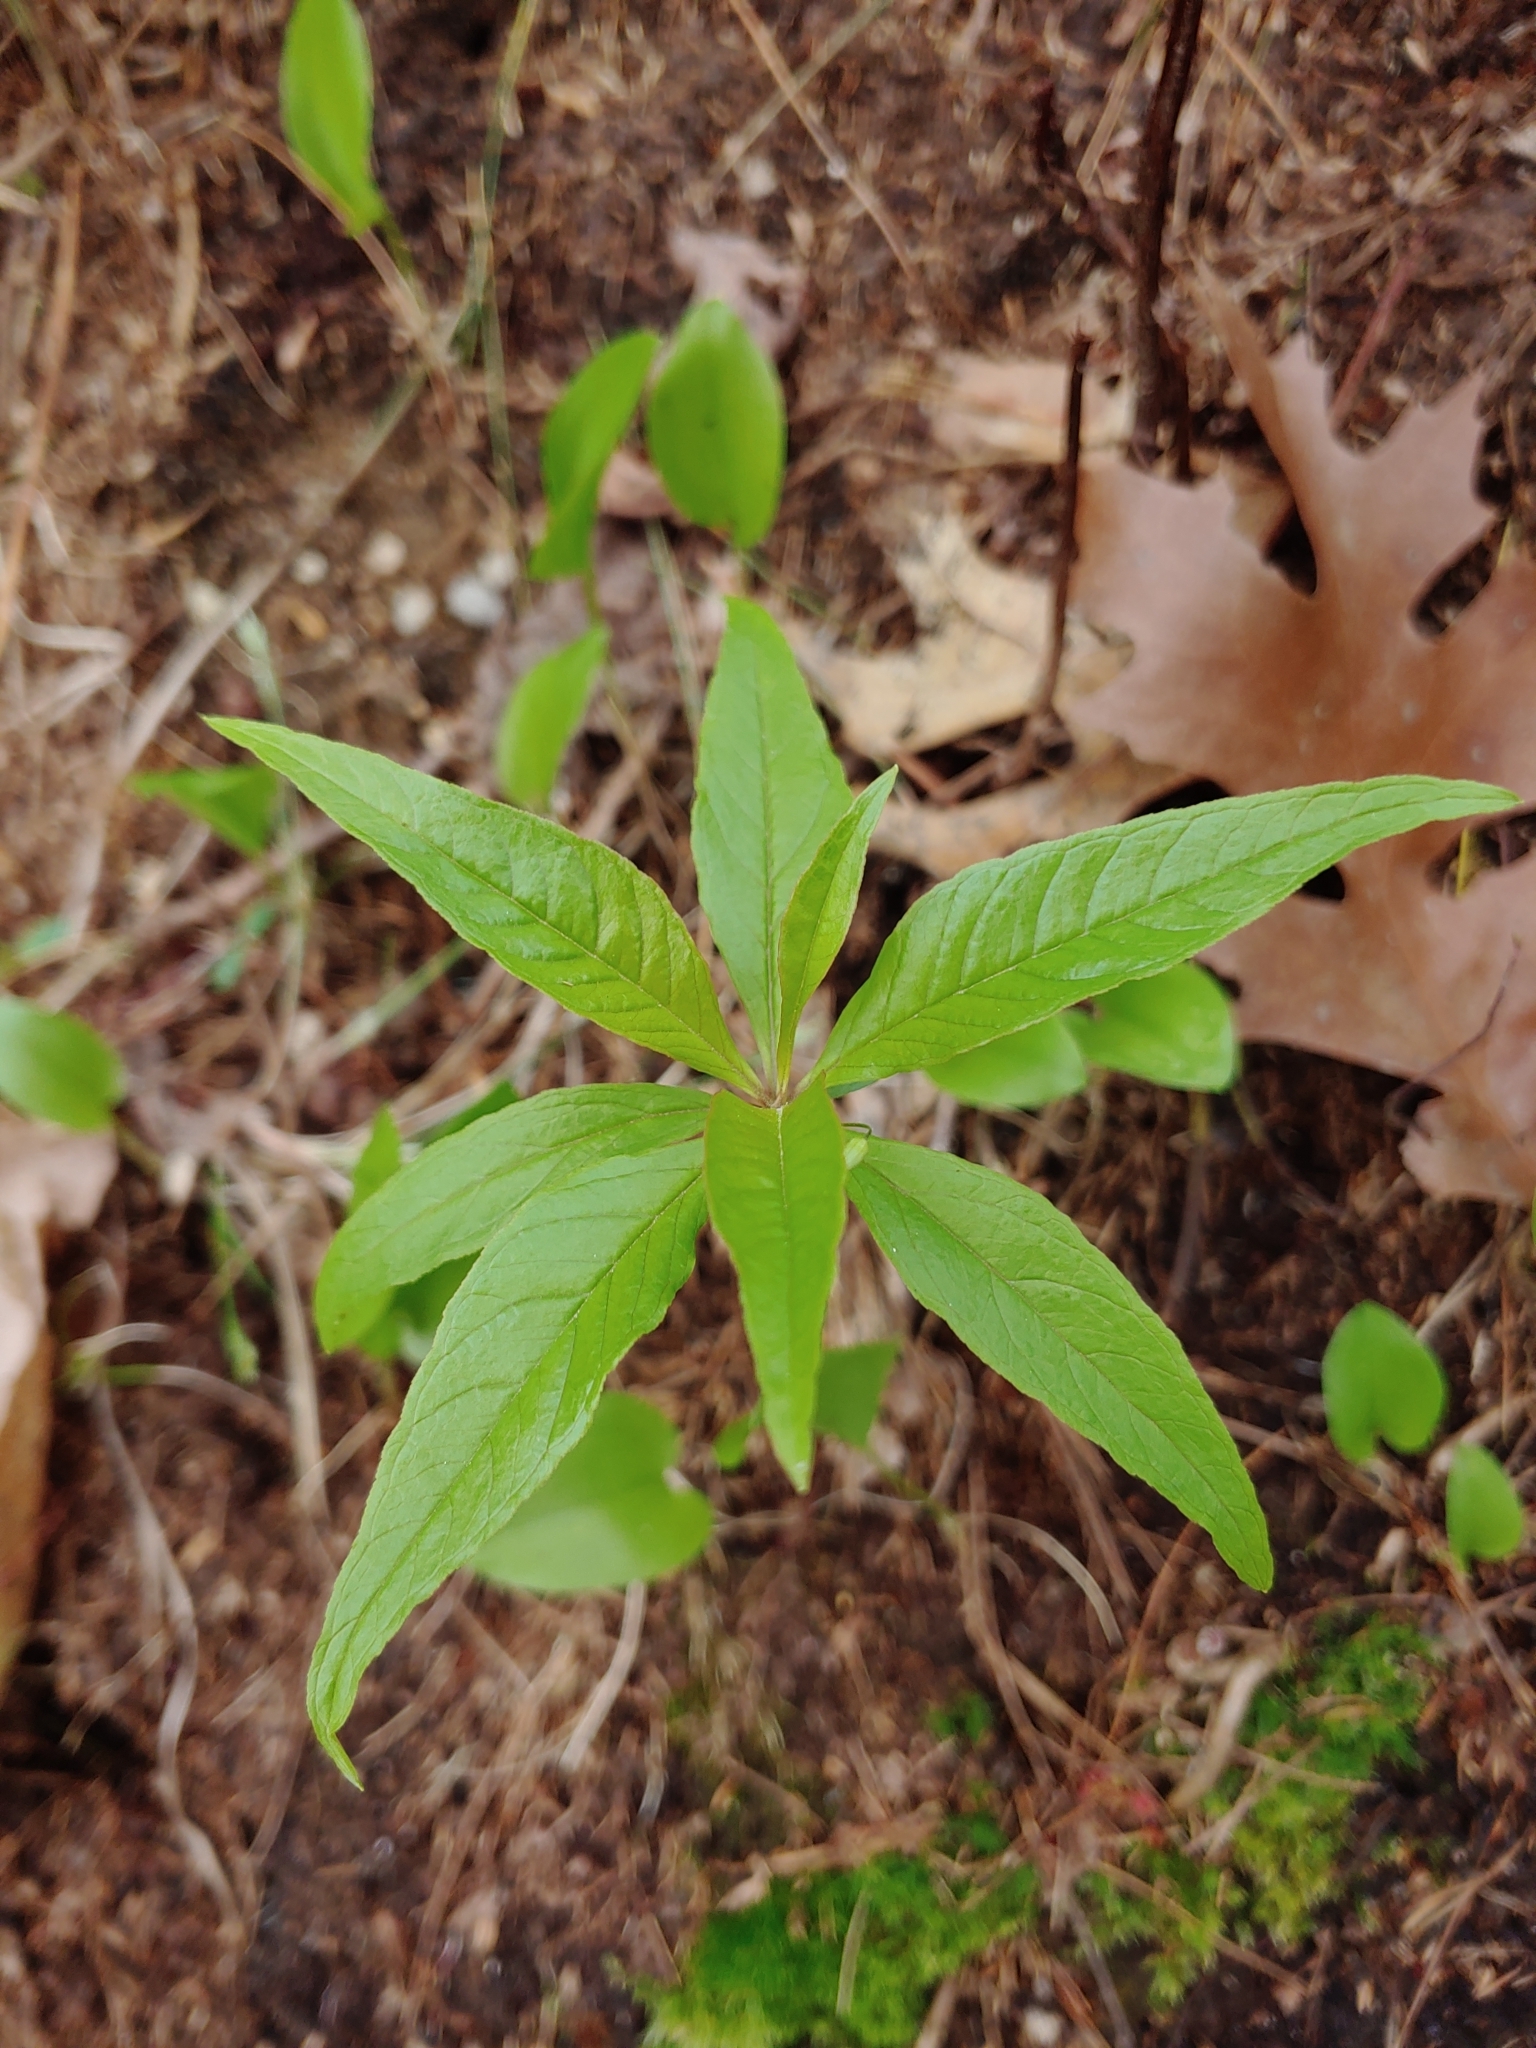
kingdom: Plantae
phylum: Tracheophyta
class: Magnoliopsida
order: Ericales
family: Primulaceae
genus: Lysimachia
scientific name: Lysimachia borealis
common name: American starflower
